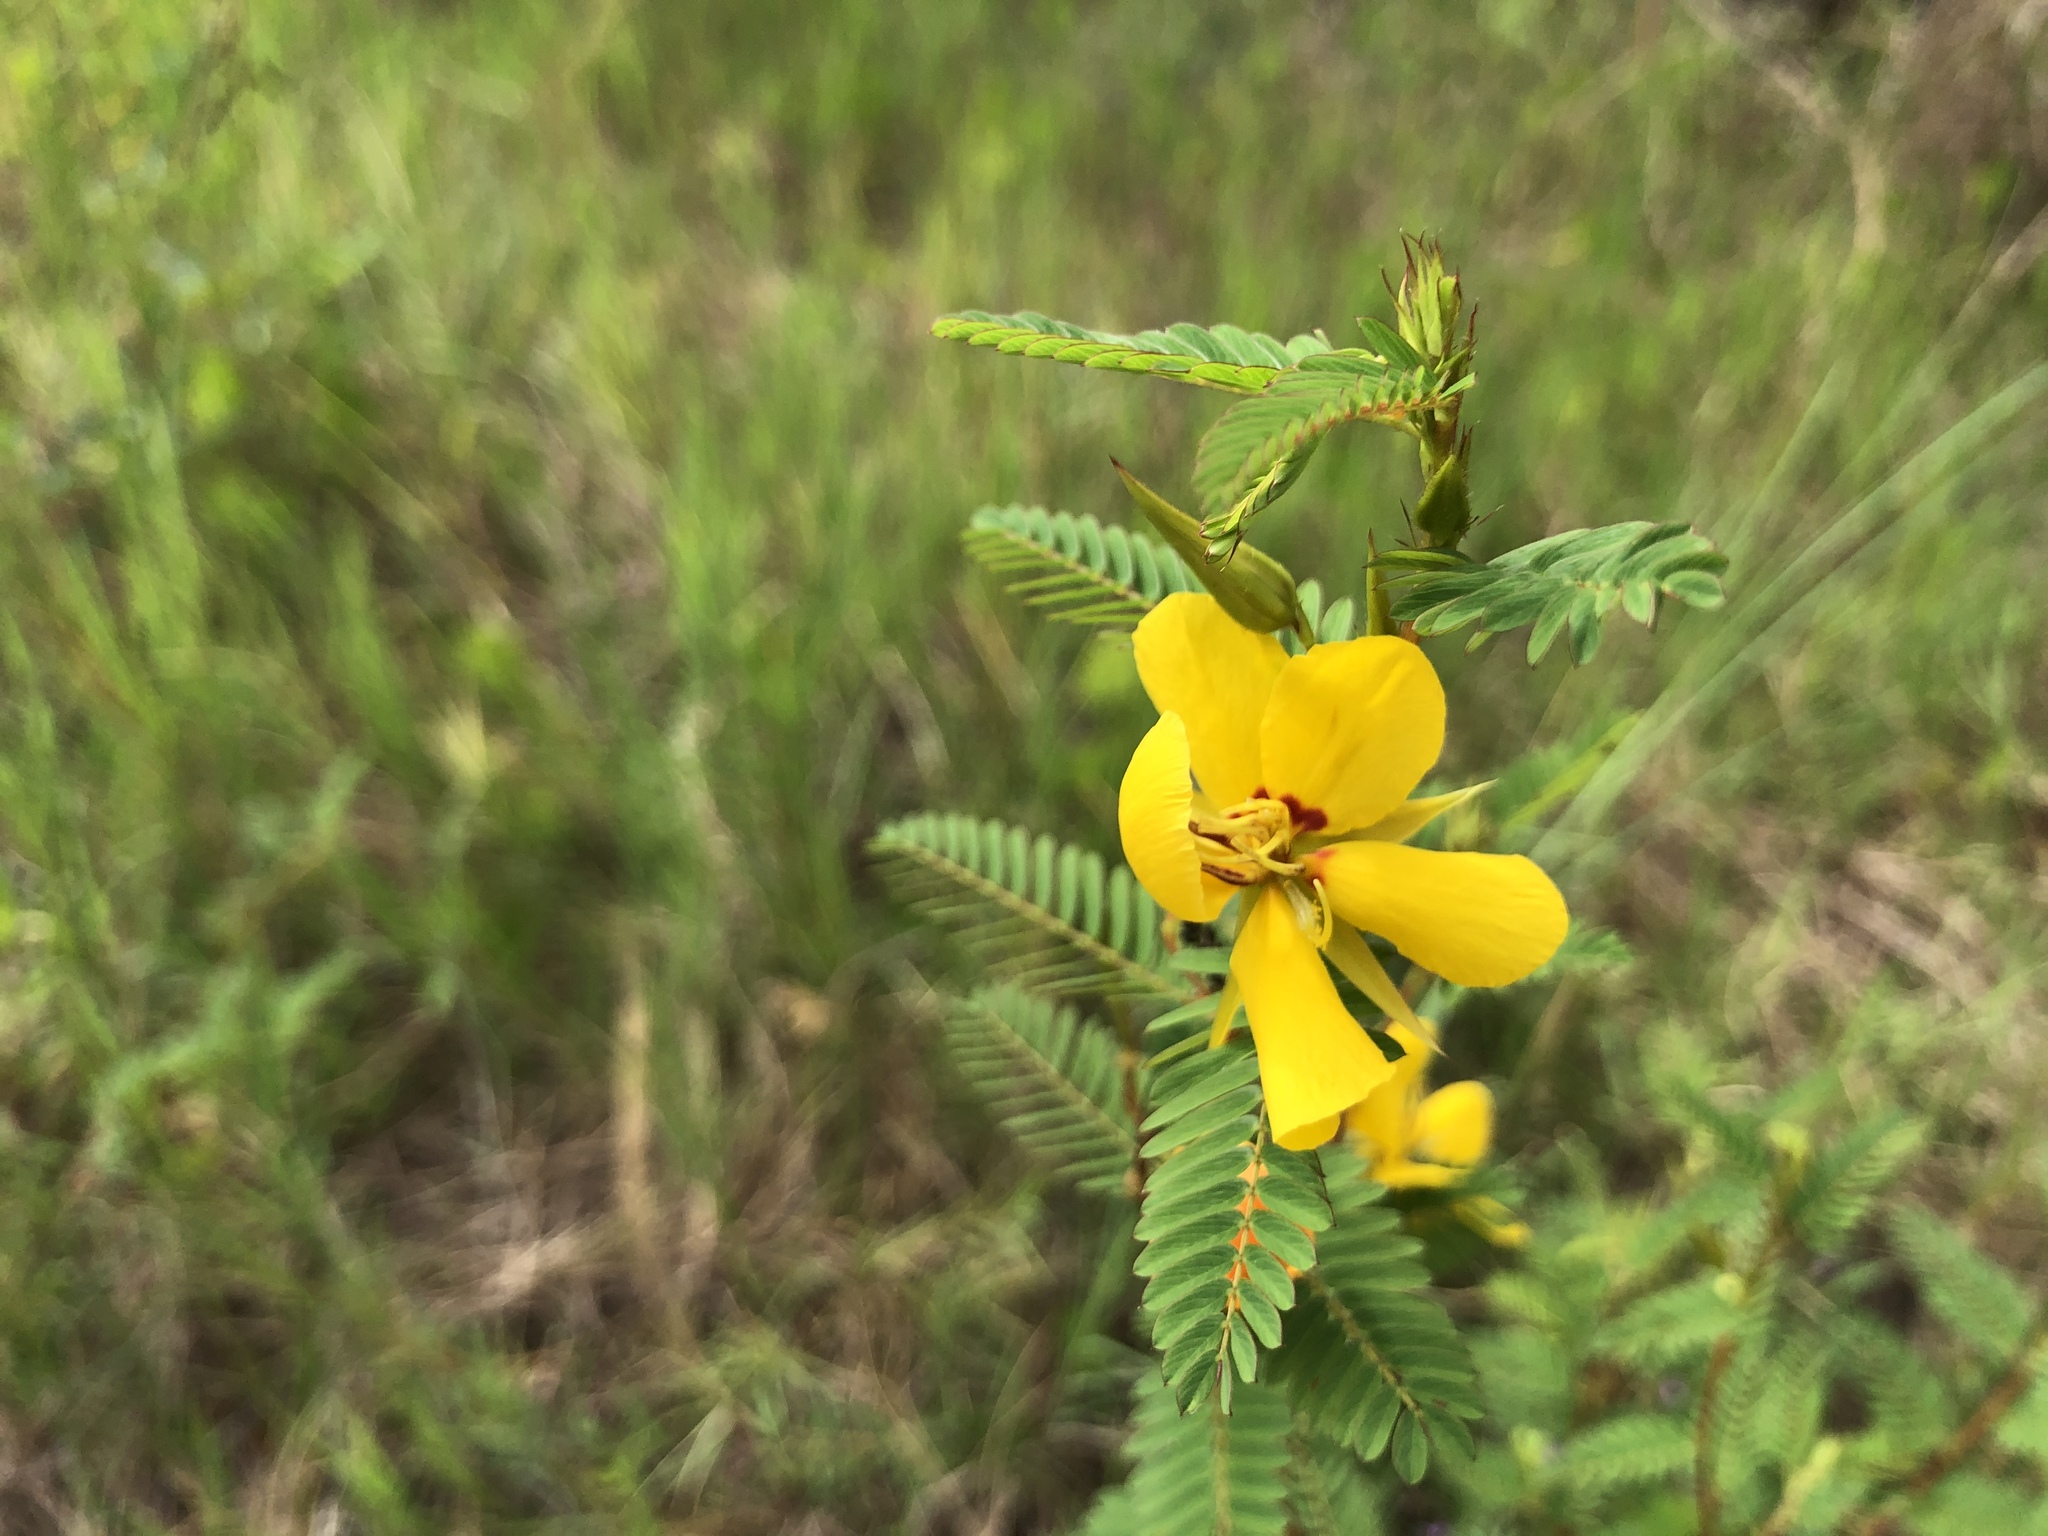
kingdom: Plantae
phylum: Tracheophyta
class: Magnoliopsida
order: Fabales
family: Fabaceae
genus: Chamaecrista
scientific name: Chamaecrista fasciculata
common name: Golden cassia
